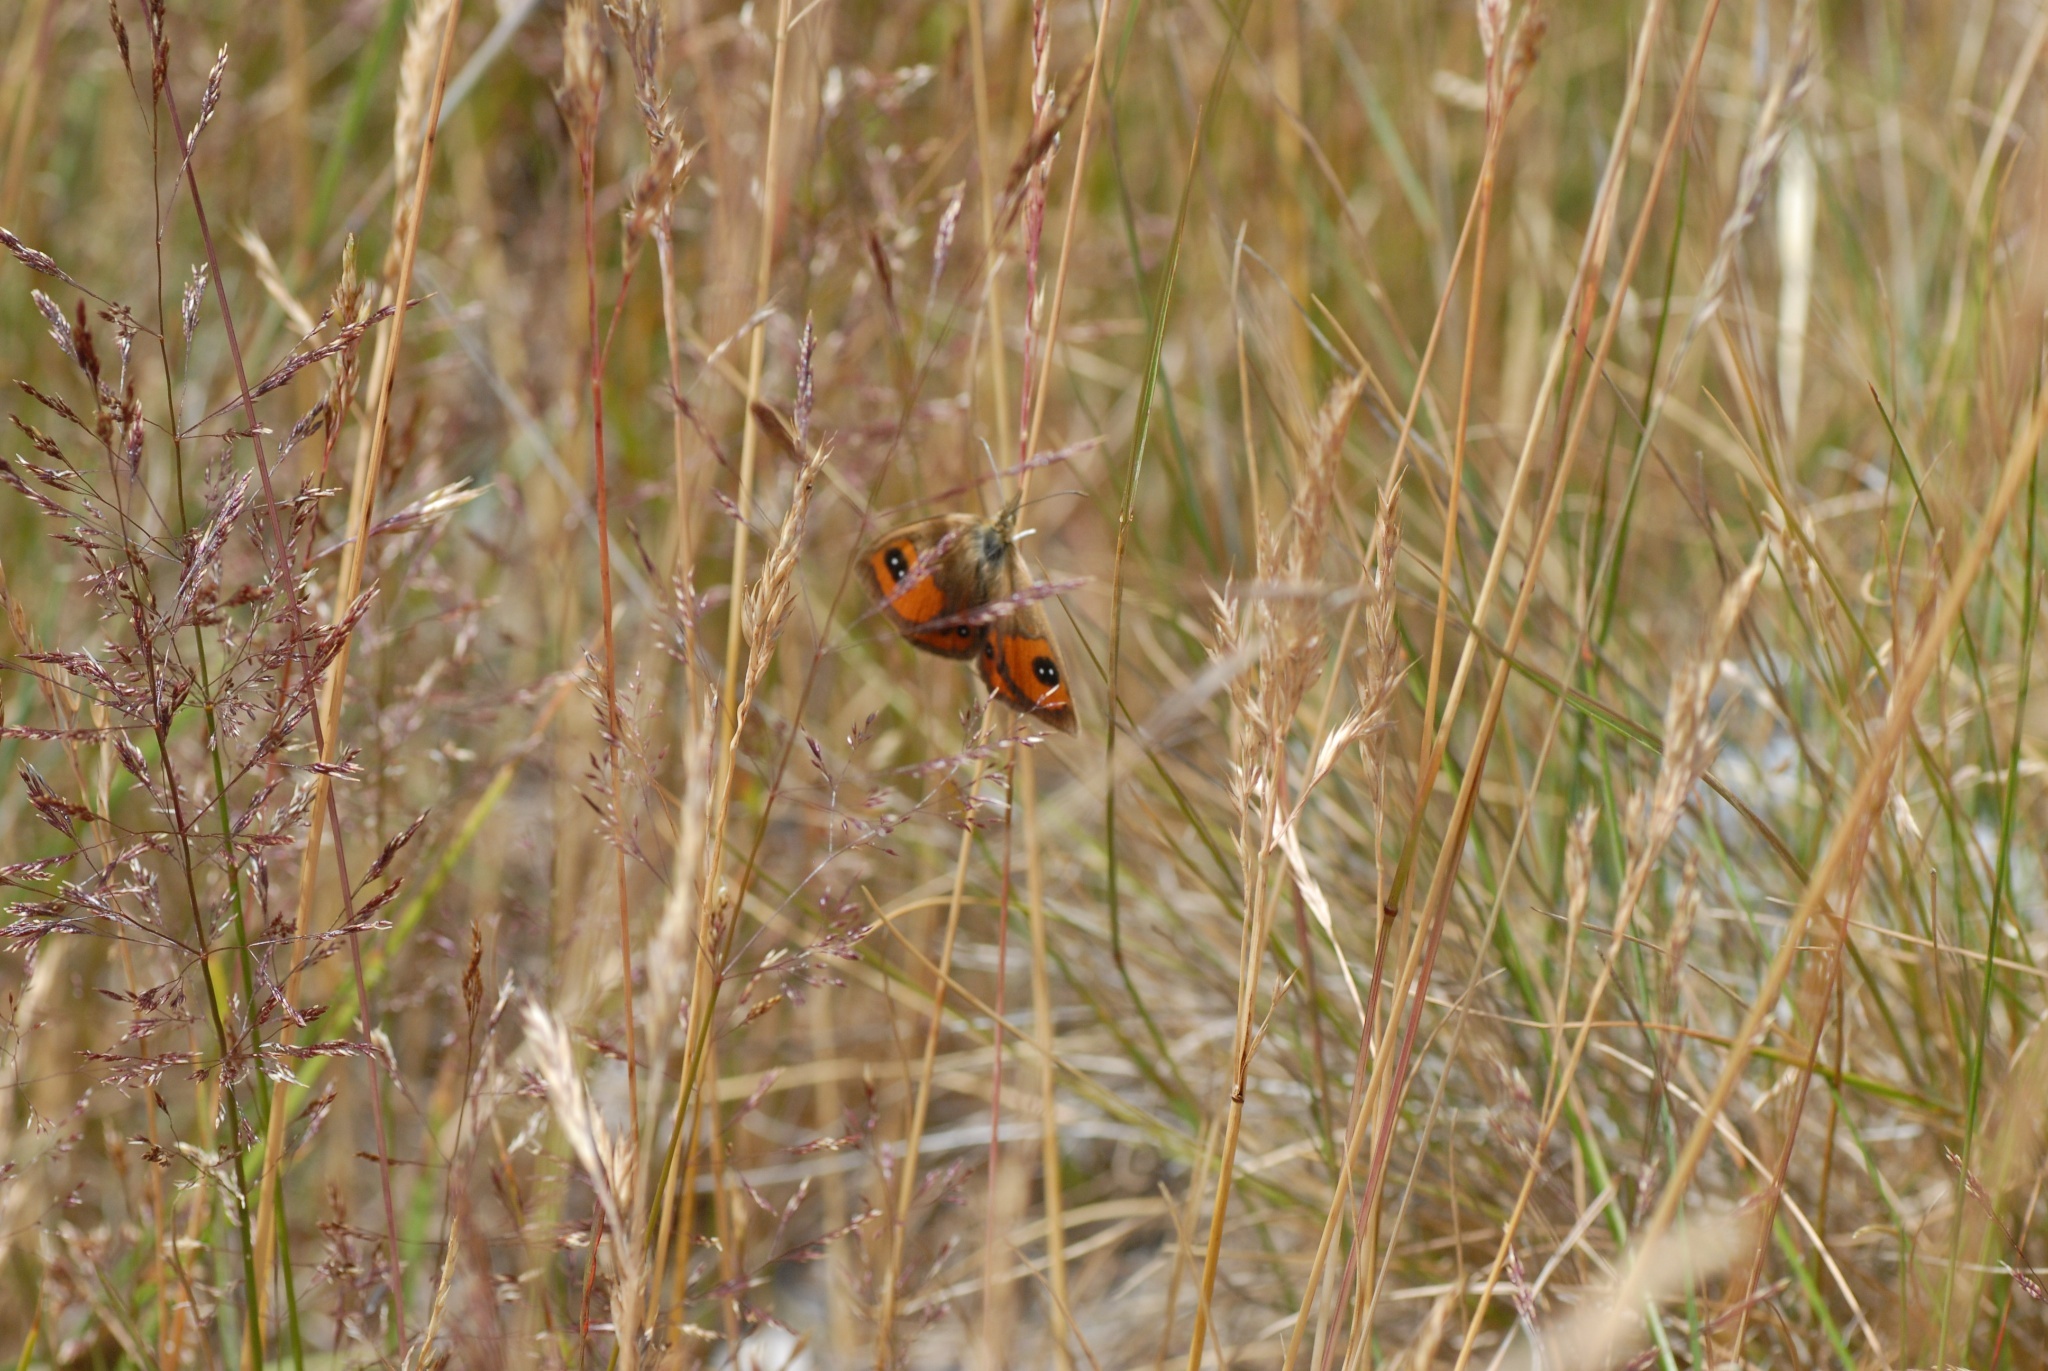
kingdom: Animalia
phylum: Arthropoda
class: Insecta
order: Lepidoptera
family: Nymphalidae
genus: Argyrophenga
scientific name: Argyrophenga antipodum
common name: Common tussock butterfly
